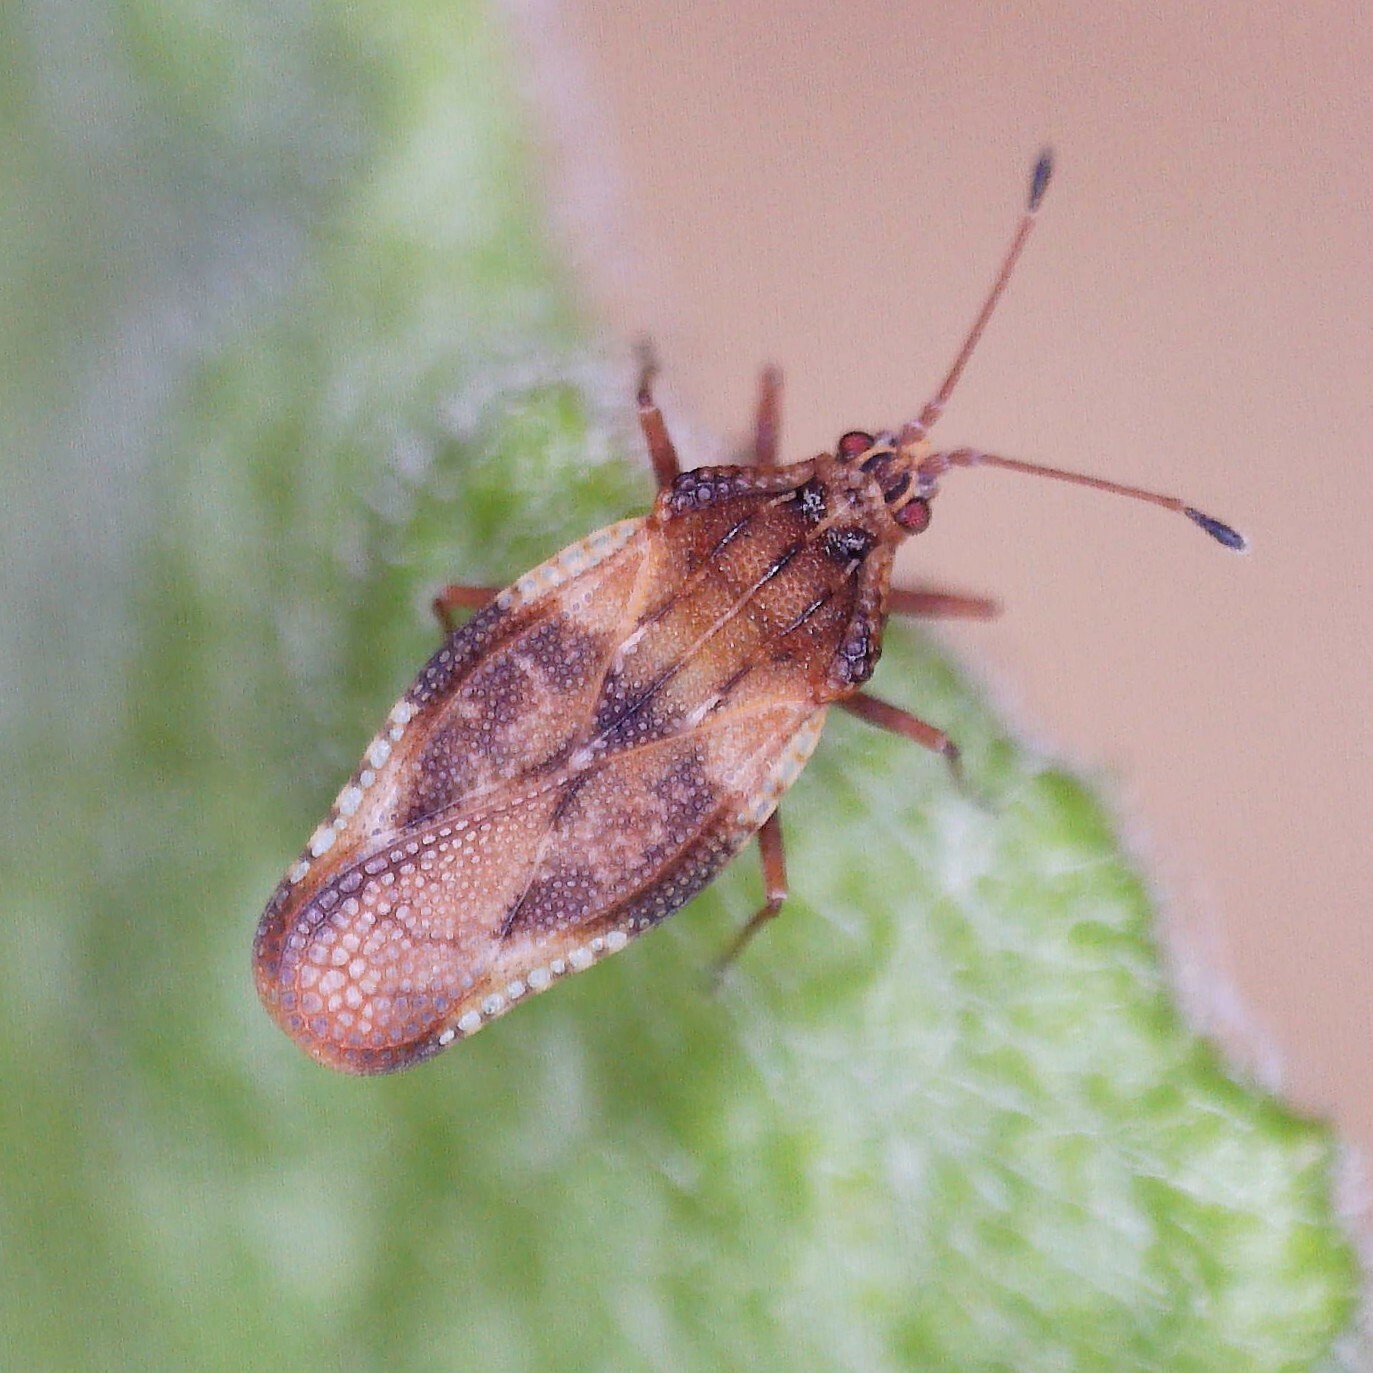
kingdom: Animalia
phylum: Arthropoda
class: Insecta
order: Hemiptera
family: Tingidae
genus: Physatocheila
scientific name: Physatocheila dumetorum
